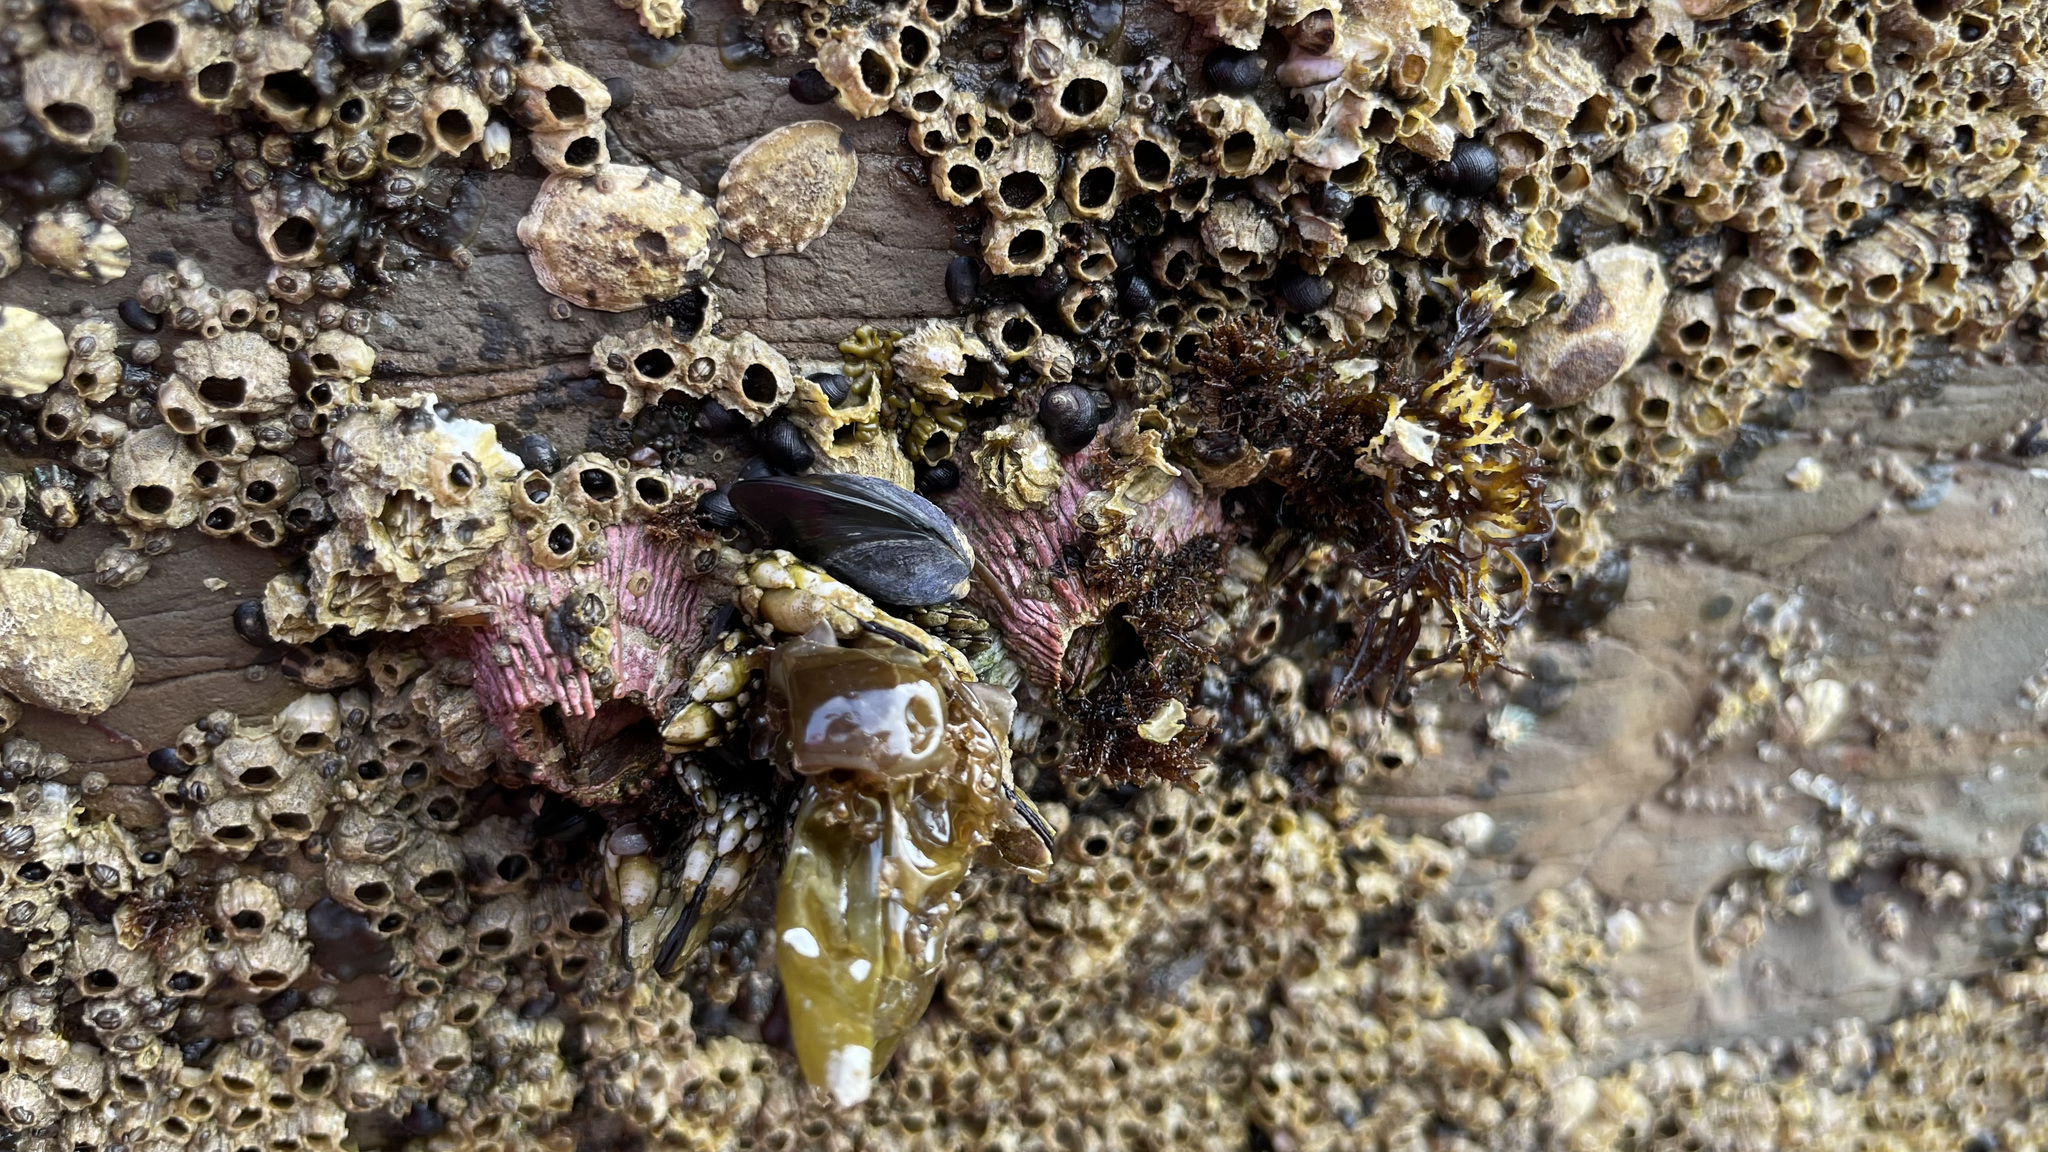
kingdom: Animalia
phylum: Arthropoda
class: Maxillopoda
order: Sessilia
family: Tetraclitidae
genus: Tetraclita
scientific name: Tetraclita rubescens
